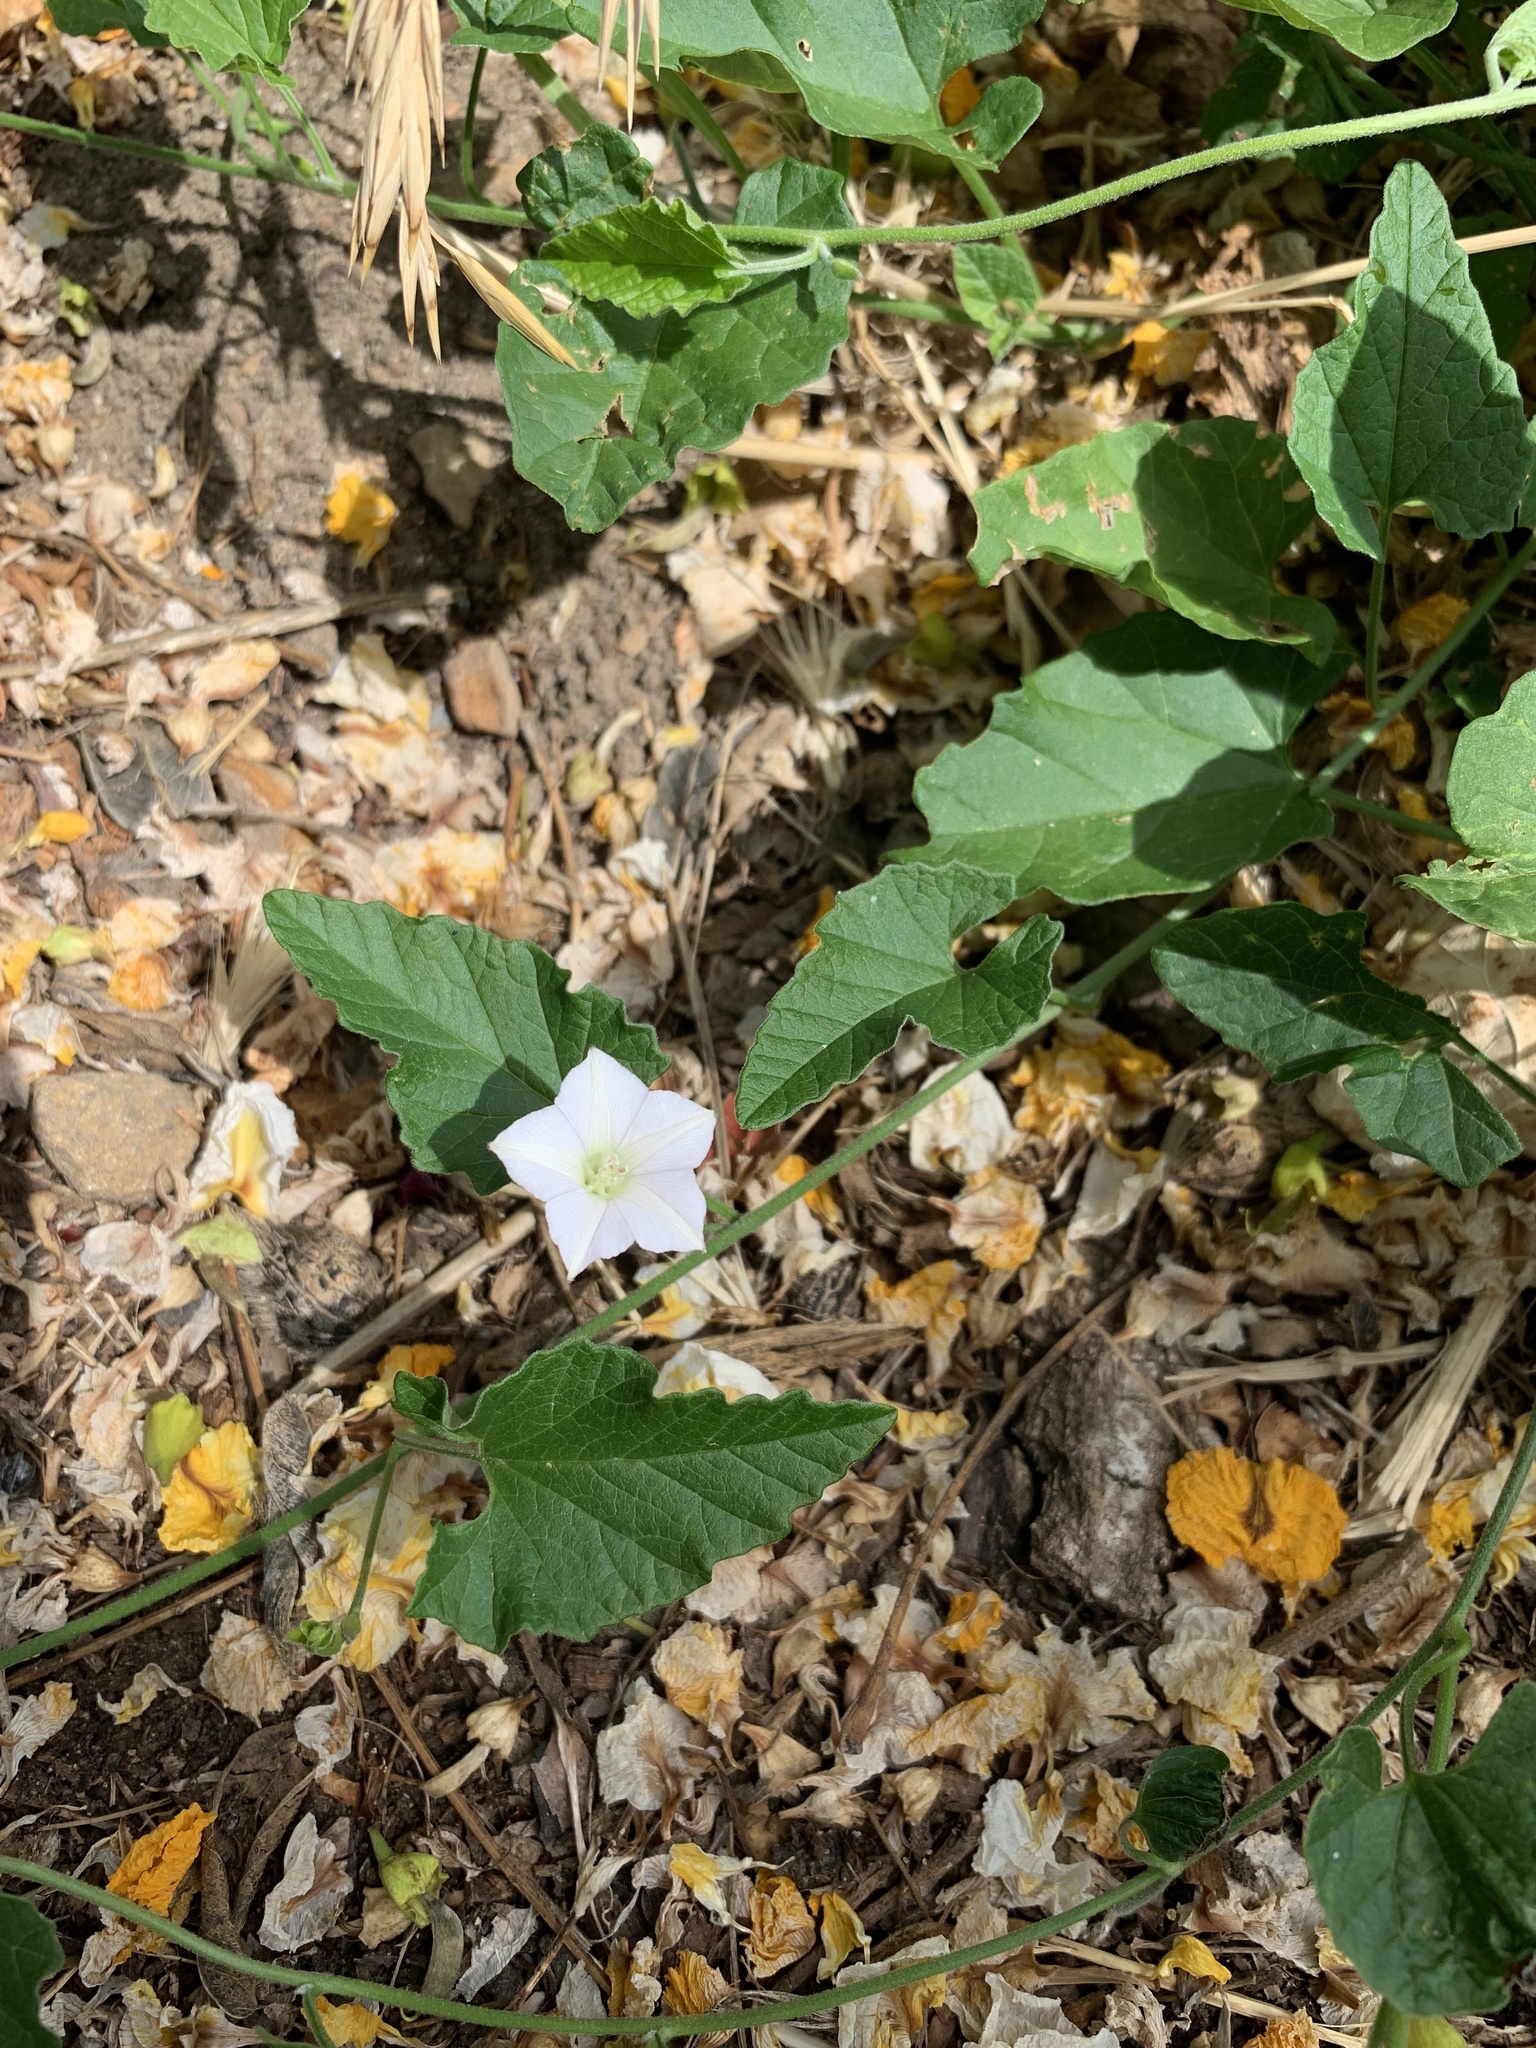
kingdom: Plantae
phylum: Tracheophyta
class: Magnoliopsida
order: Solanales
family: Convolvulaceae
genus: Convolvulus
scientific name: Convolvulus farinosus
